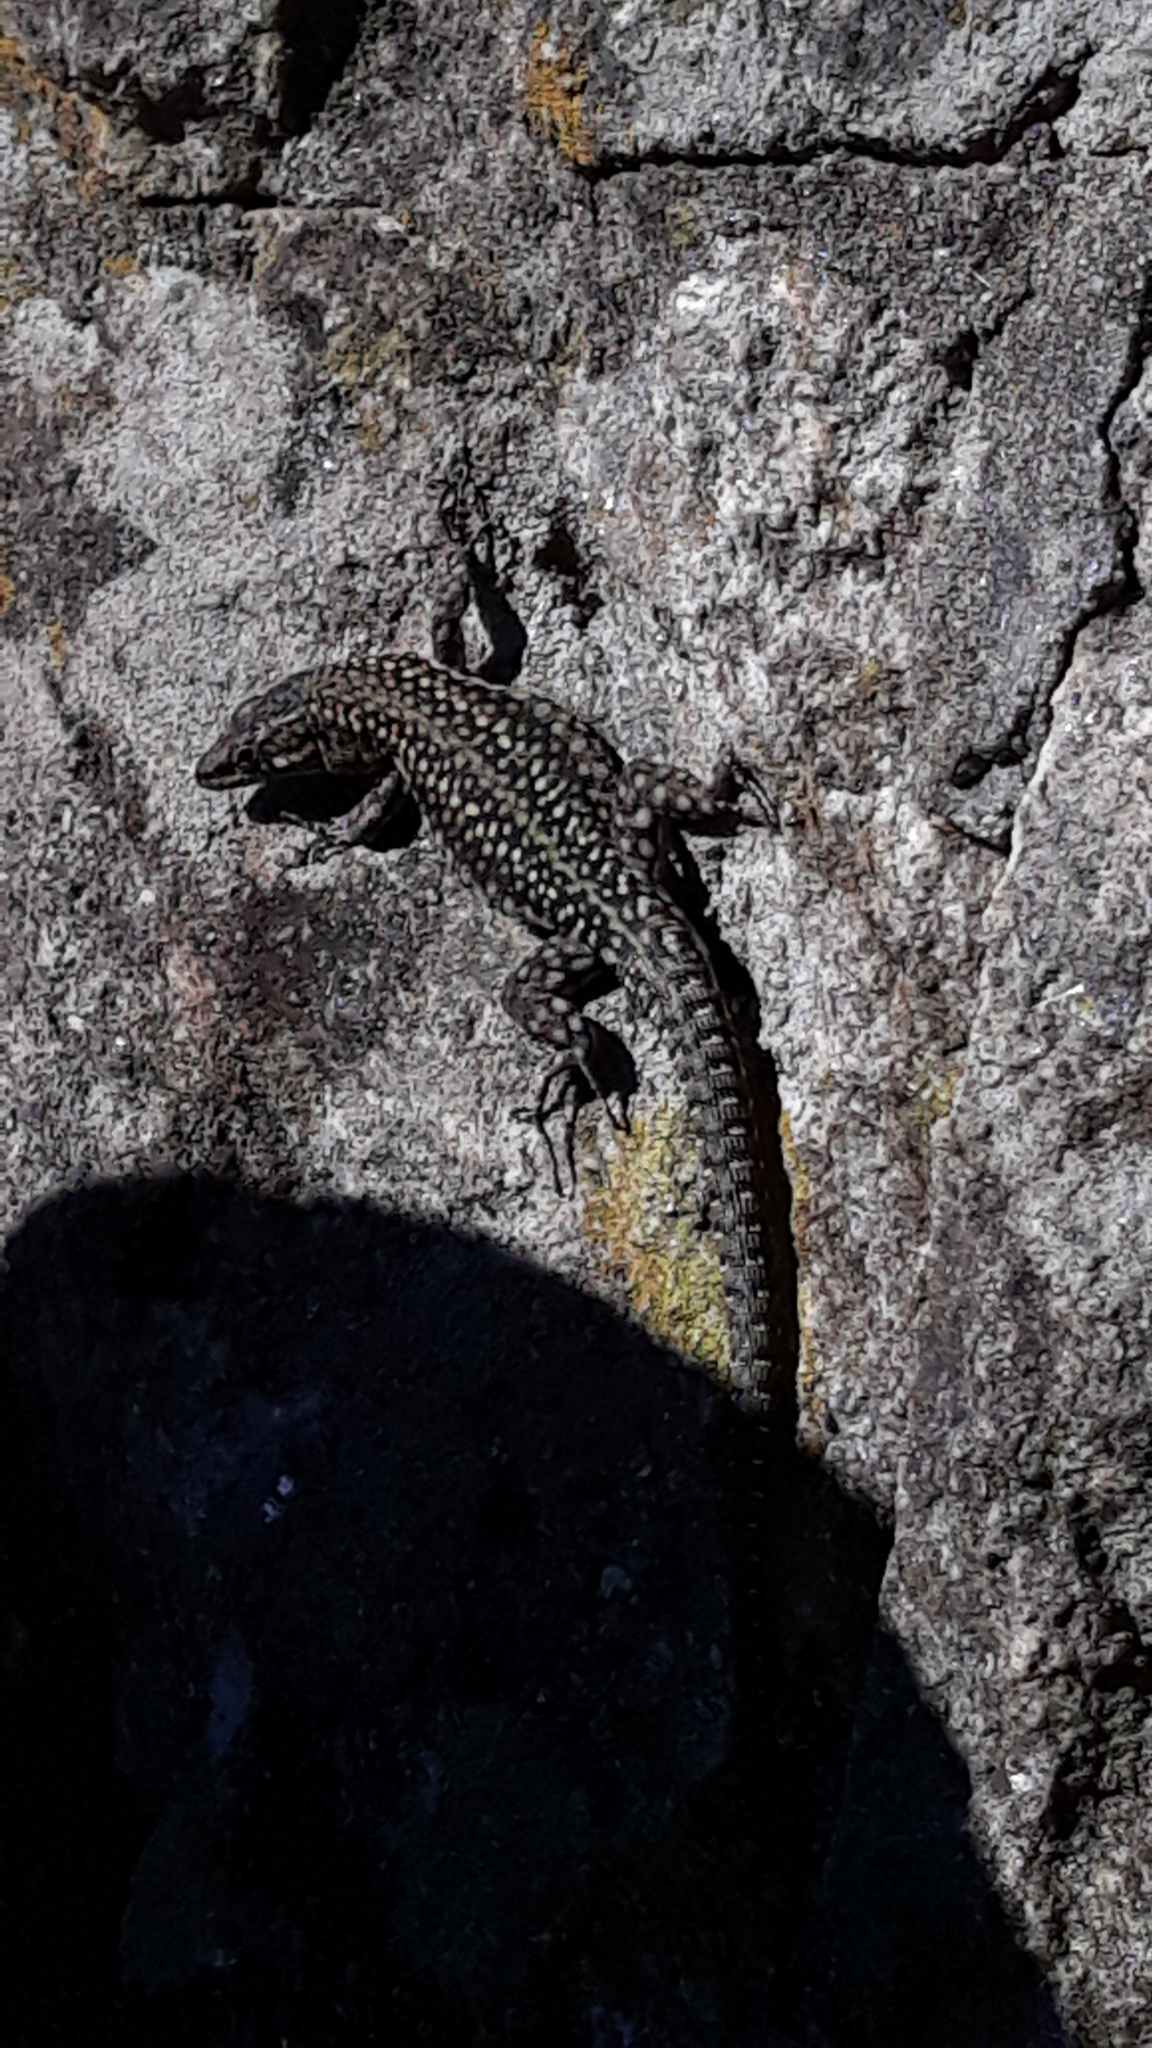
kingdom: Animalia
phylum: Chordata
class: Squamata
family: Lacertidae
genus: Podarcis
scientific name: Podarcis
